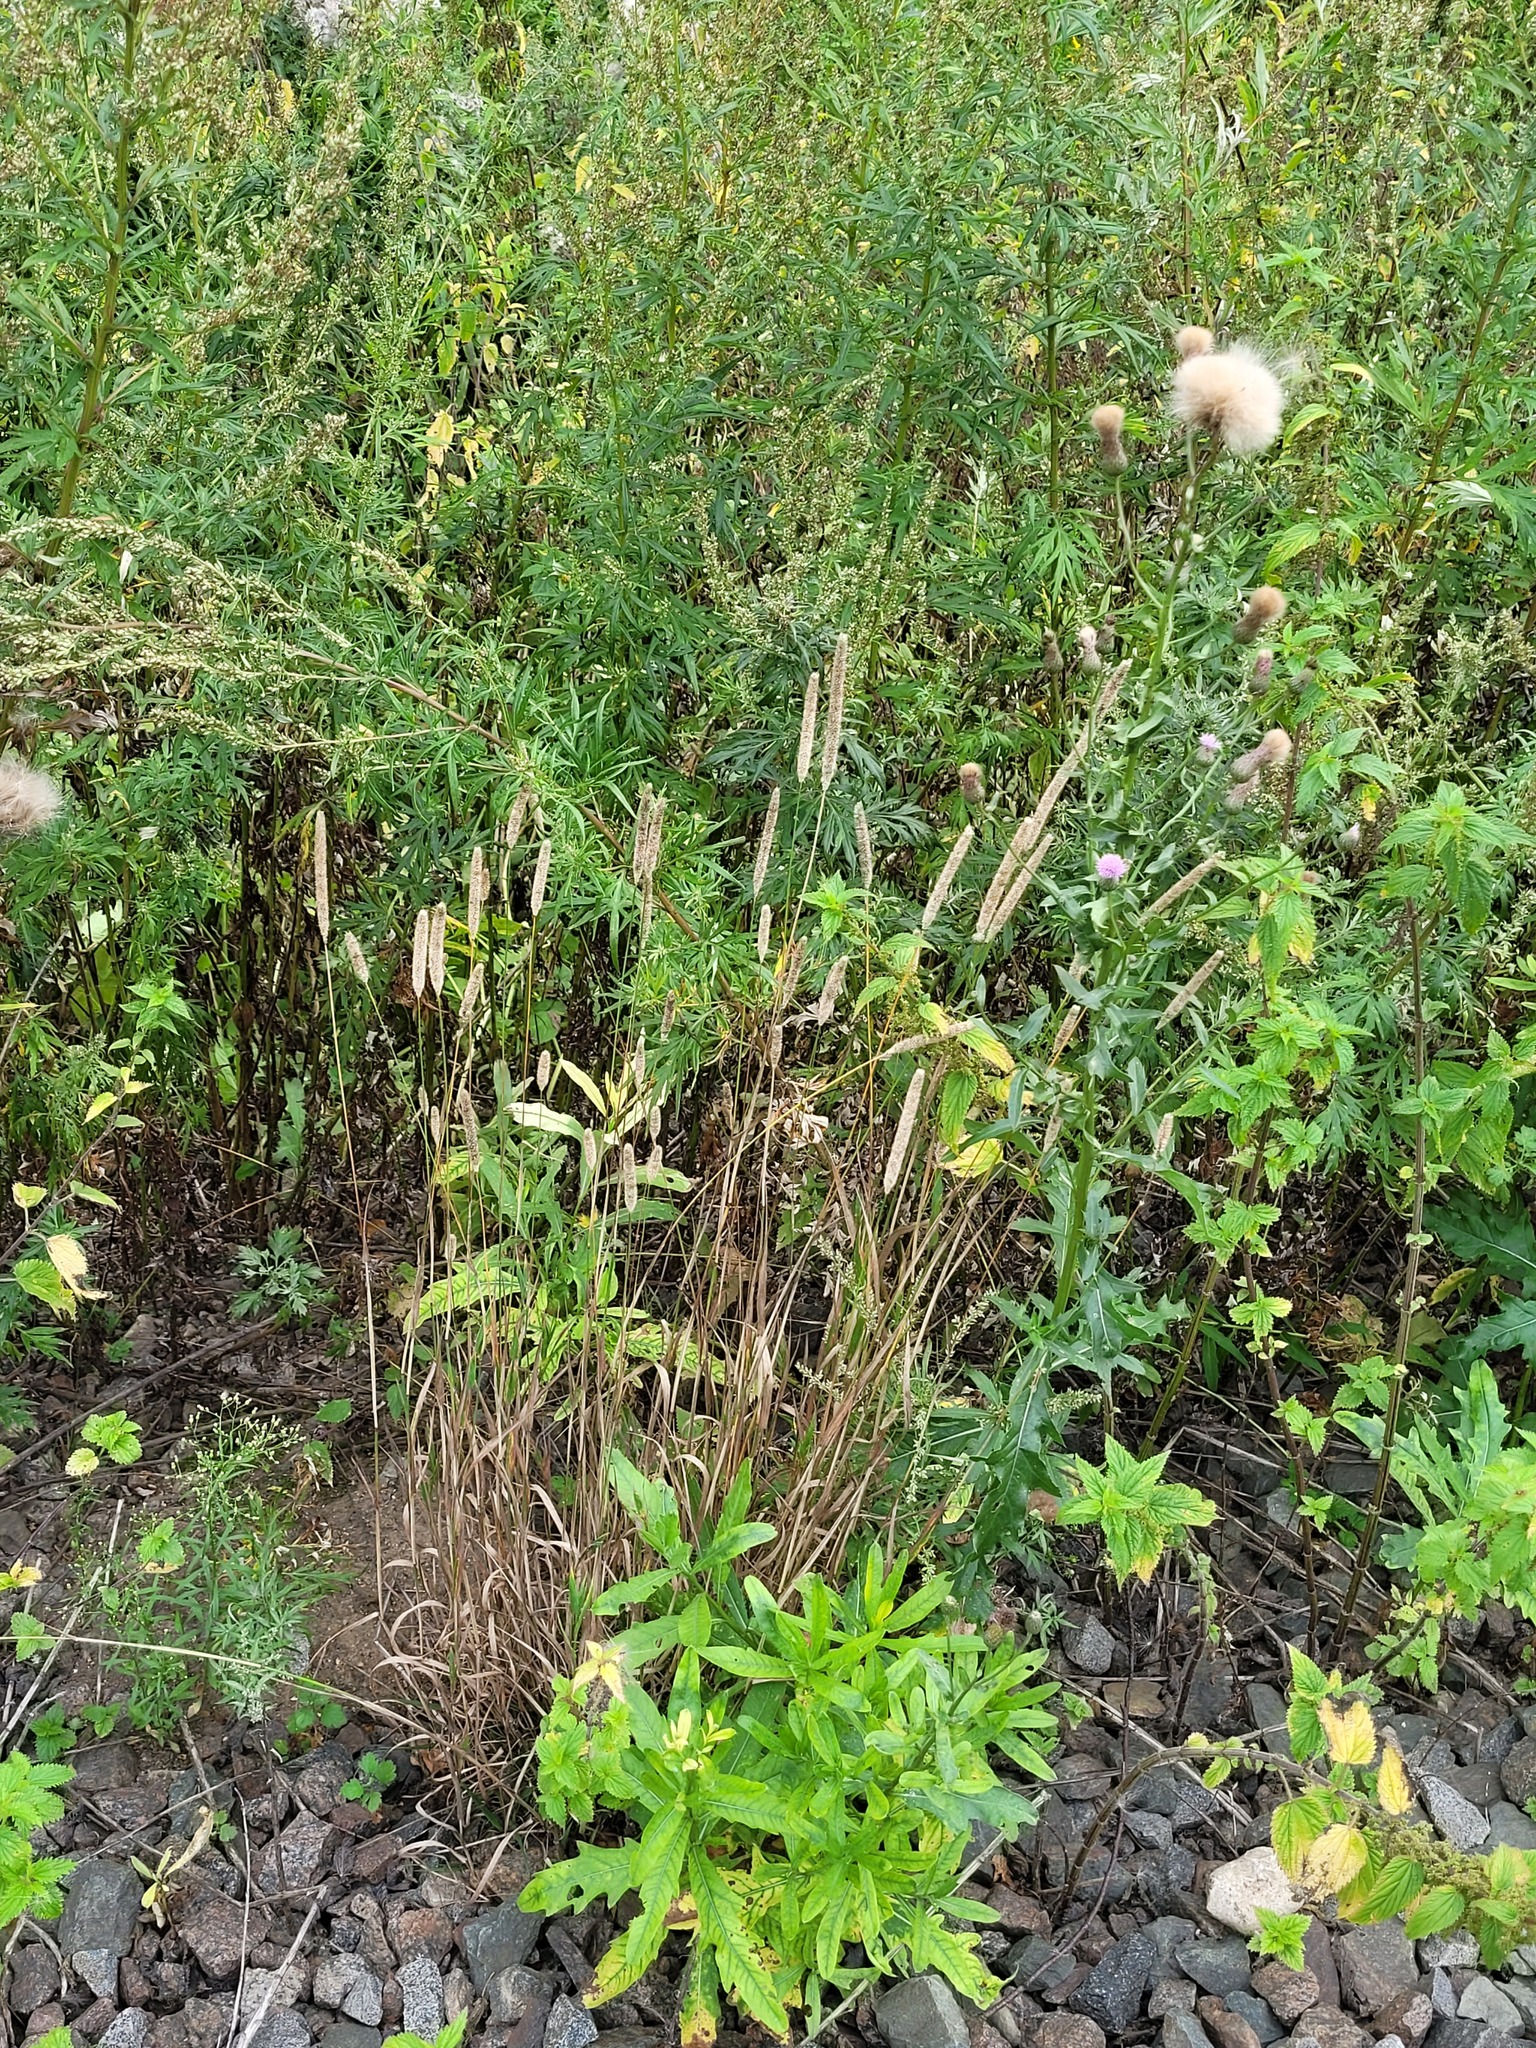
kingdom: Plantae
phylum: Tracheophyta
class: Liliopsida
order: Poales
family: Poaceae
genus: Phleum
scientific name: Phleum pratense
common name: Timothy grass
